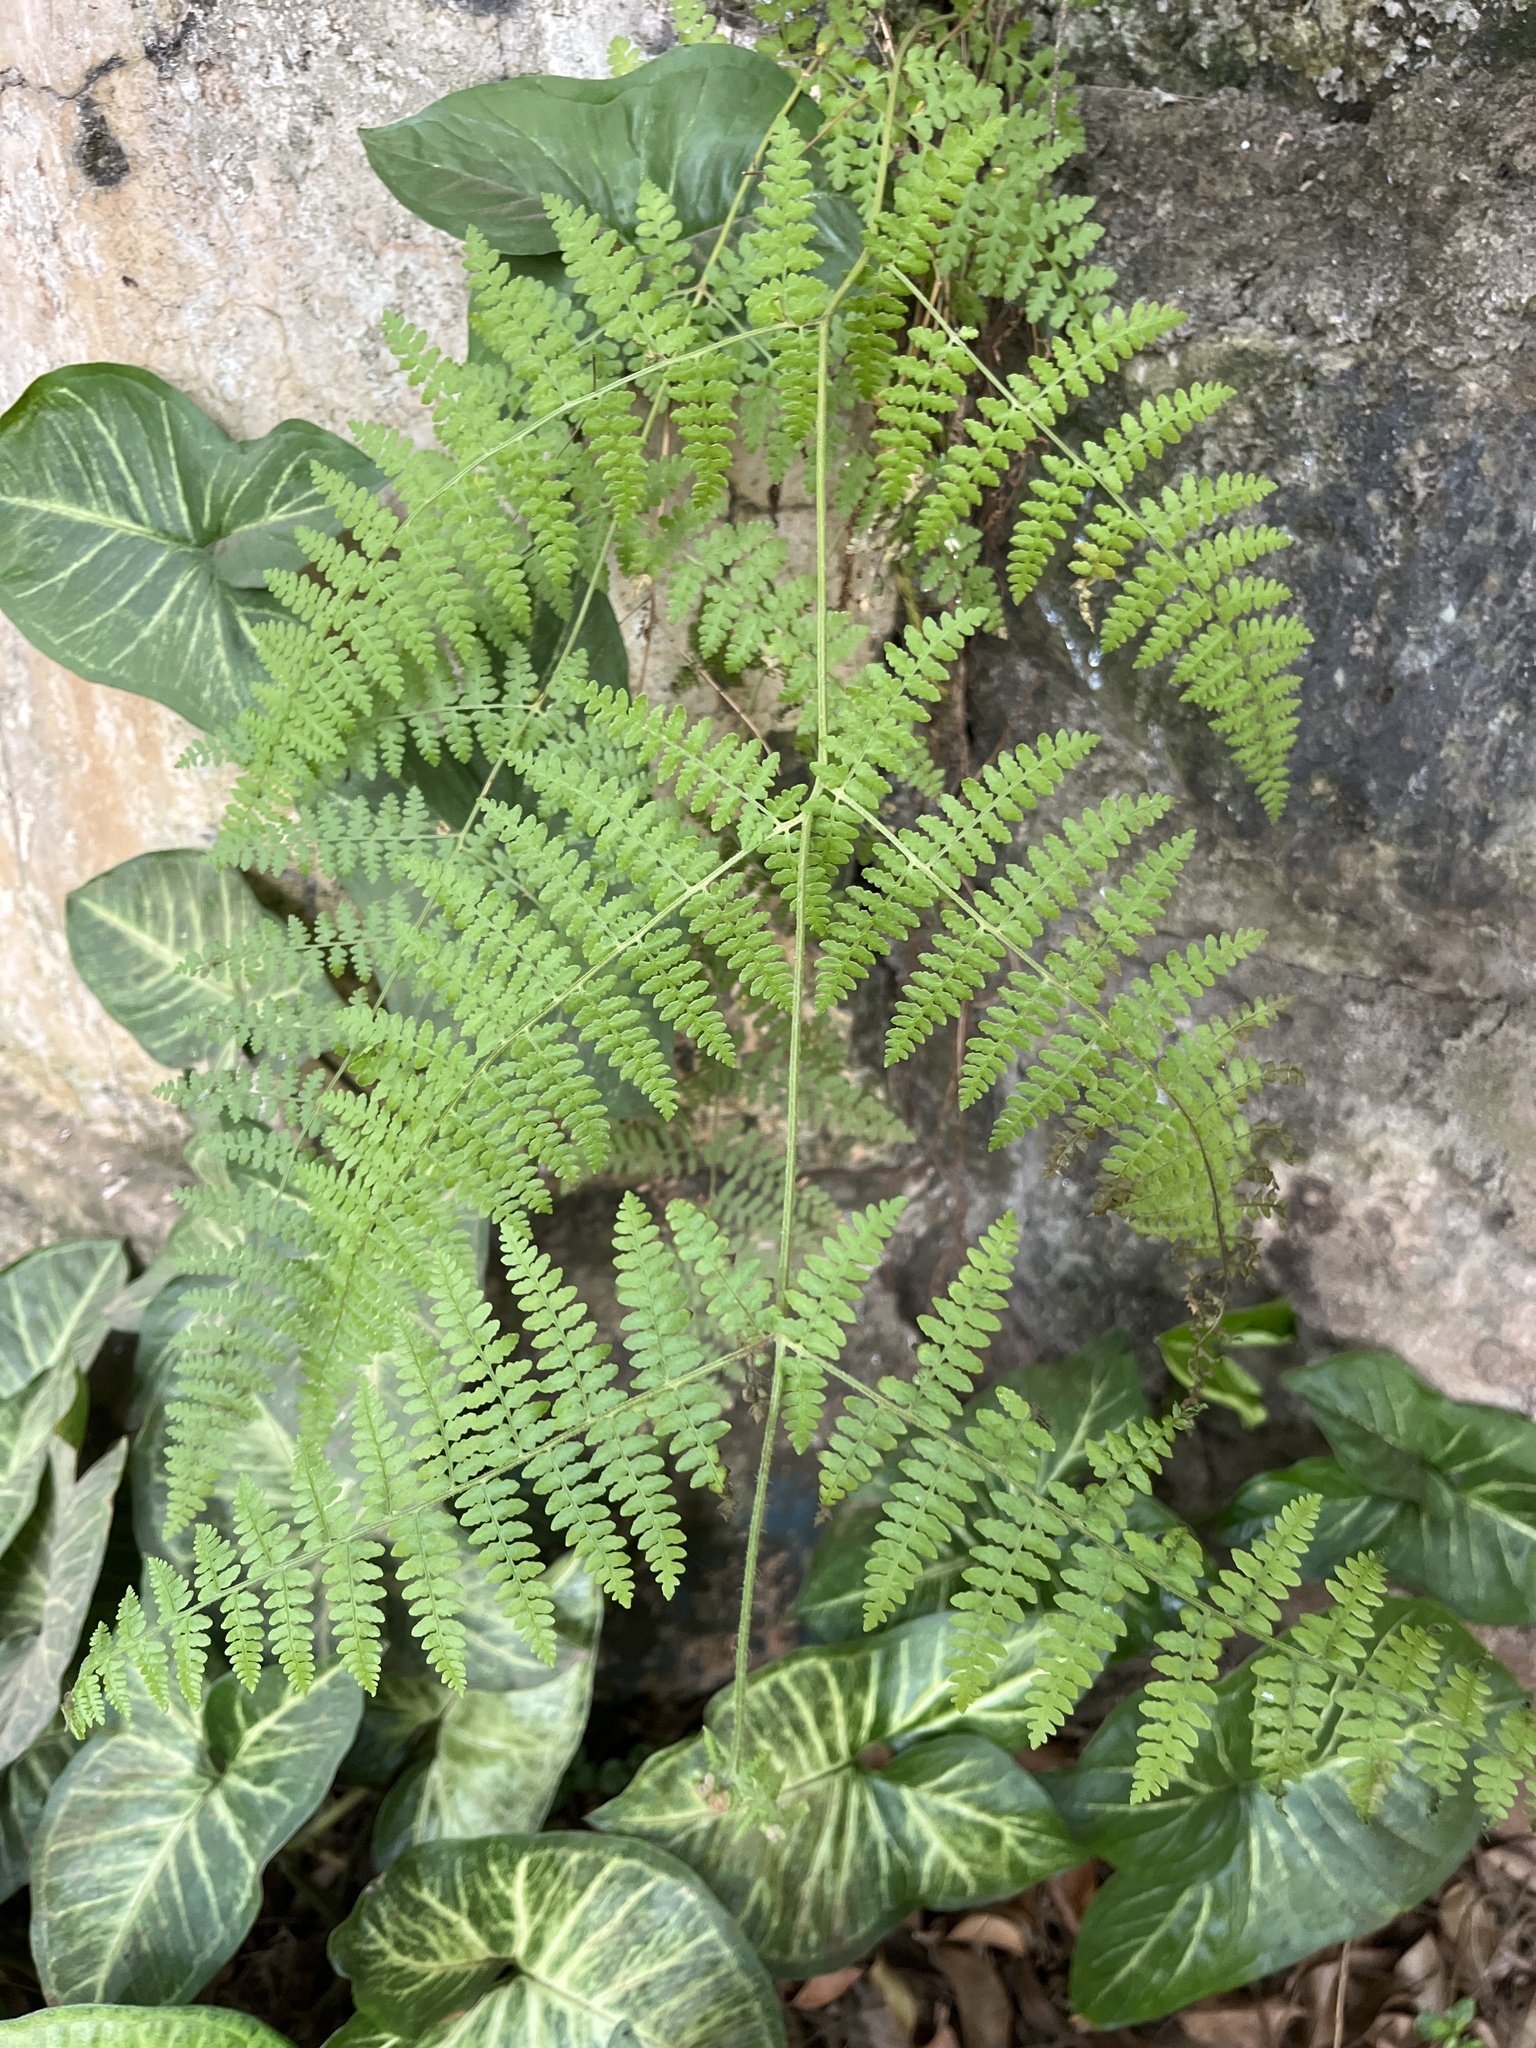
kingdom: Plantae
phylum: Tracheophyta
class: Polypodiopsida
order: Polypodiales
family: Dennstaedtiaceae
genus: Pteridium
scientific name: Pteridium aquilinum
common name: Bracken
